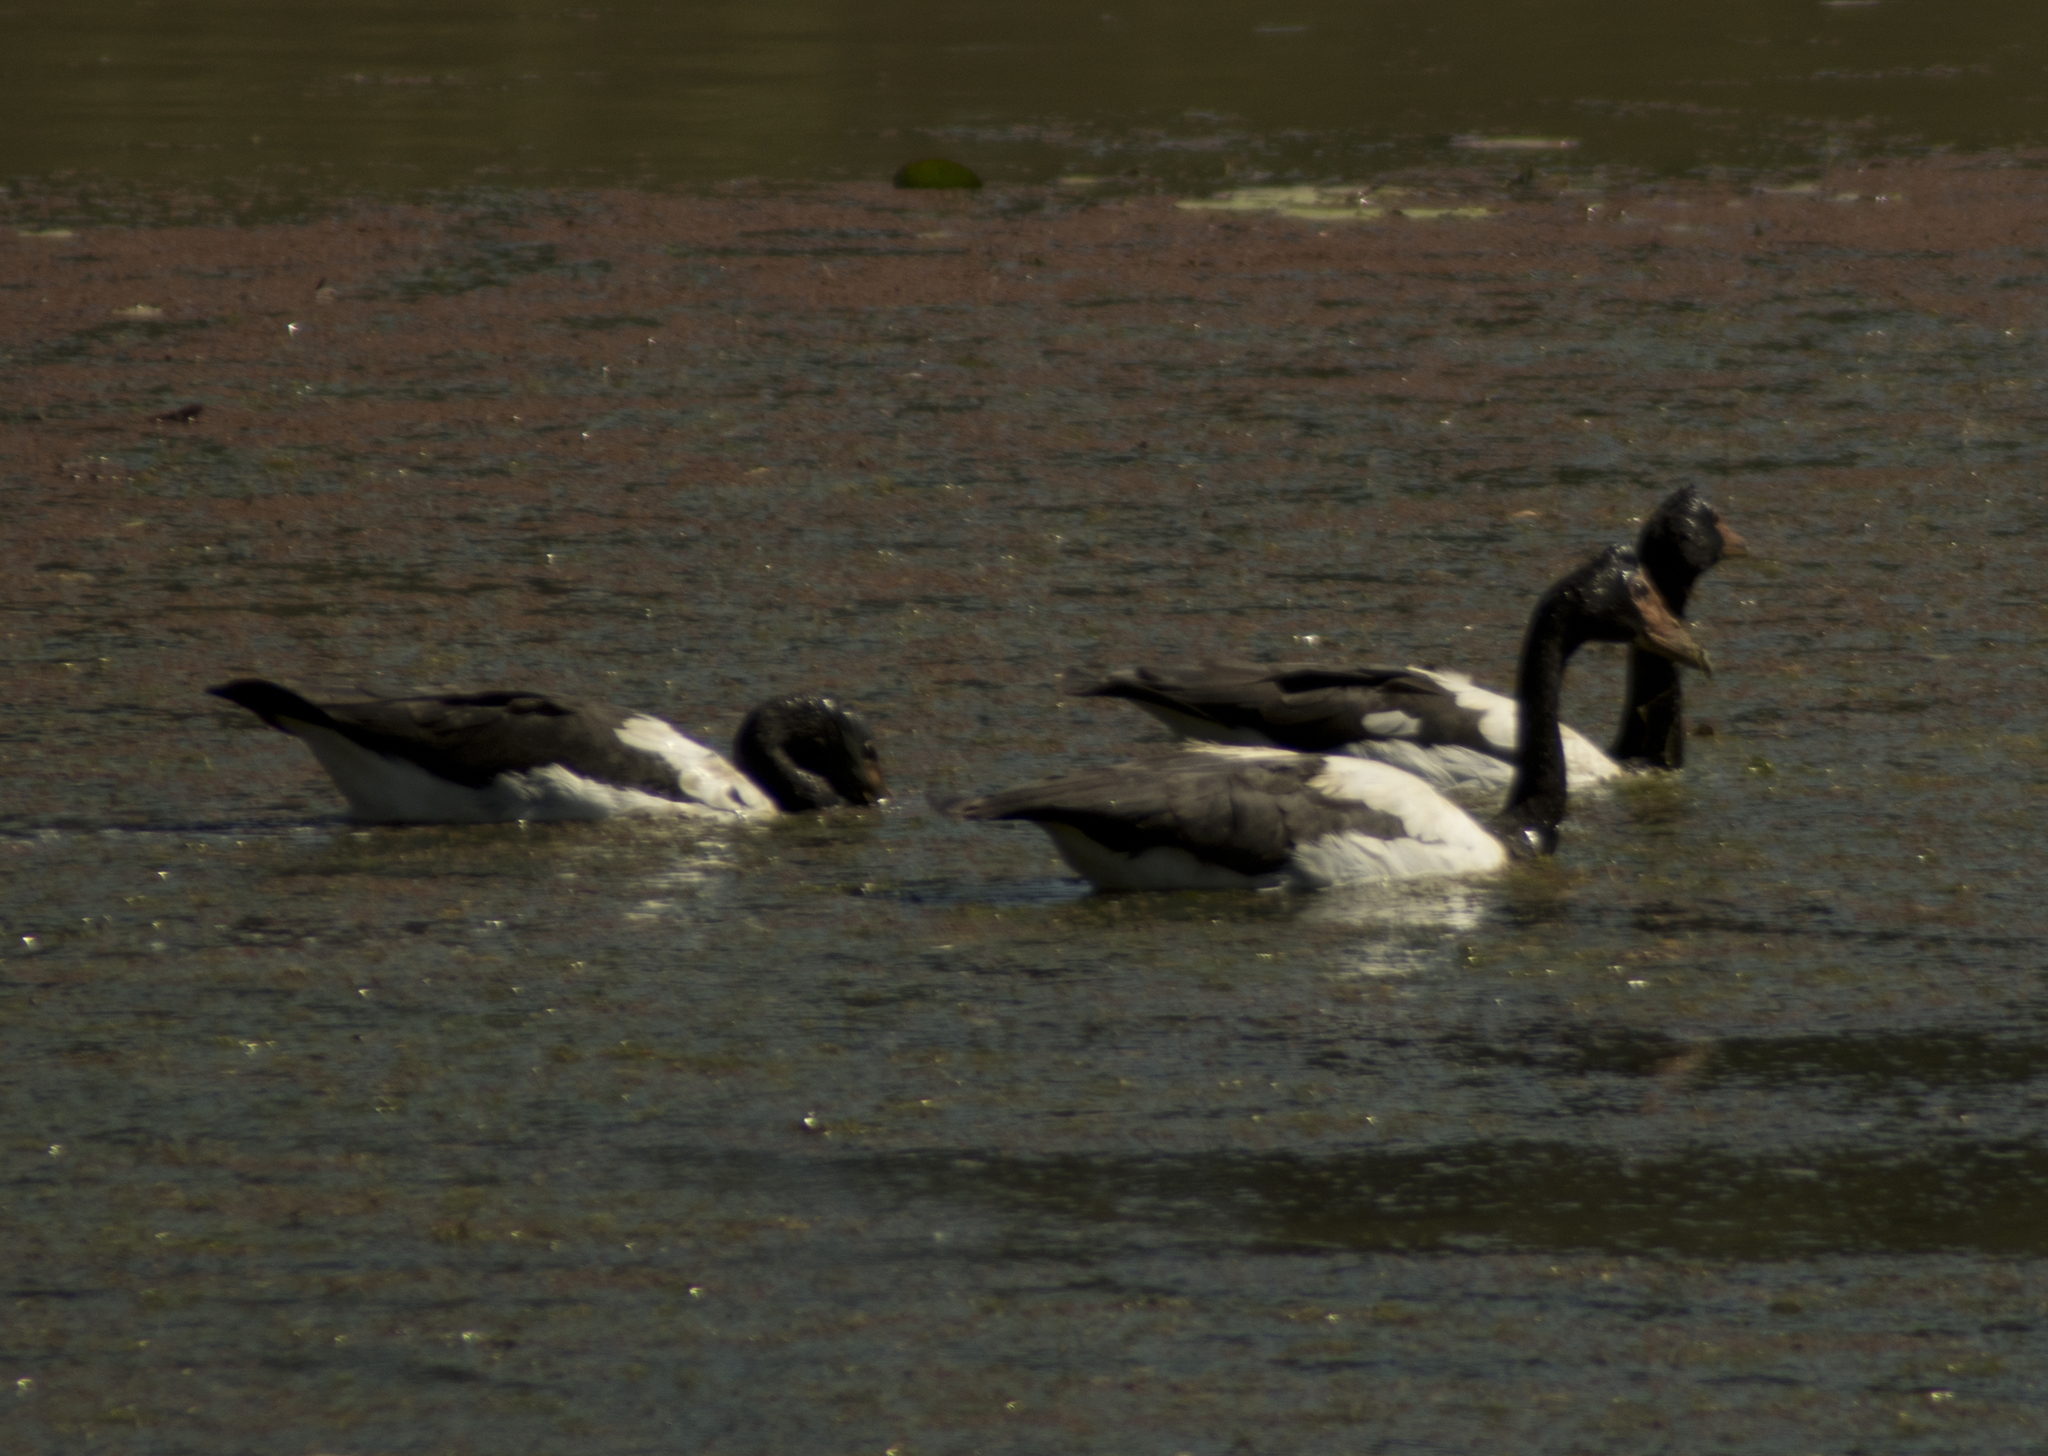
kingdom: Animalia
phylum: Chordata
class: Aves
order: Anseriformes
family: Anseranatidae
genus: Anseranas
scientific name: Anseranas semipalmata
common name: Magpie goose
